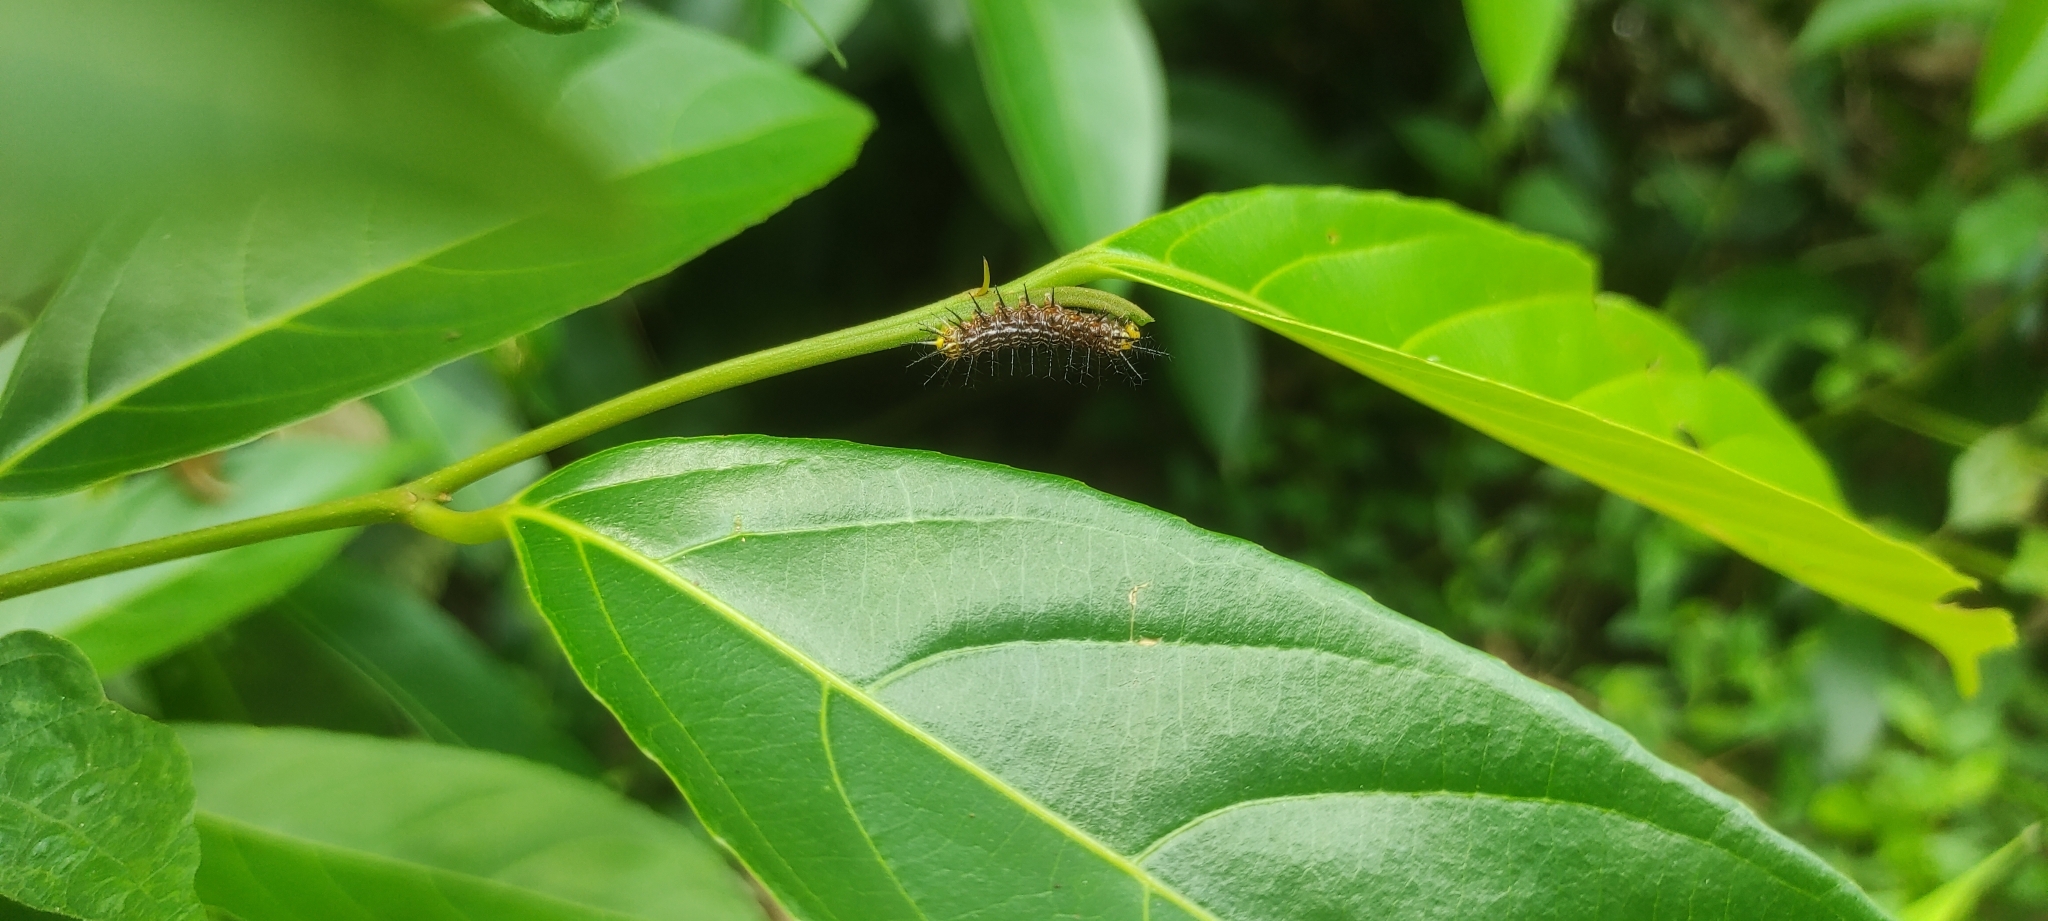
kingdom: Animalia
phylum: Arthropoda
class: Insecta
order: Lepidoptera
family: Nymphalidae
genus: Cirrochroa
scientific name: Cirrochroa thais
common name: Tamil yeoman
